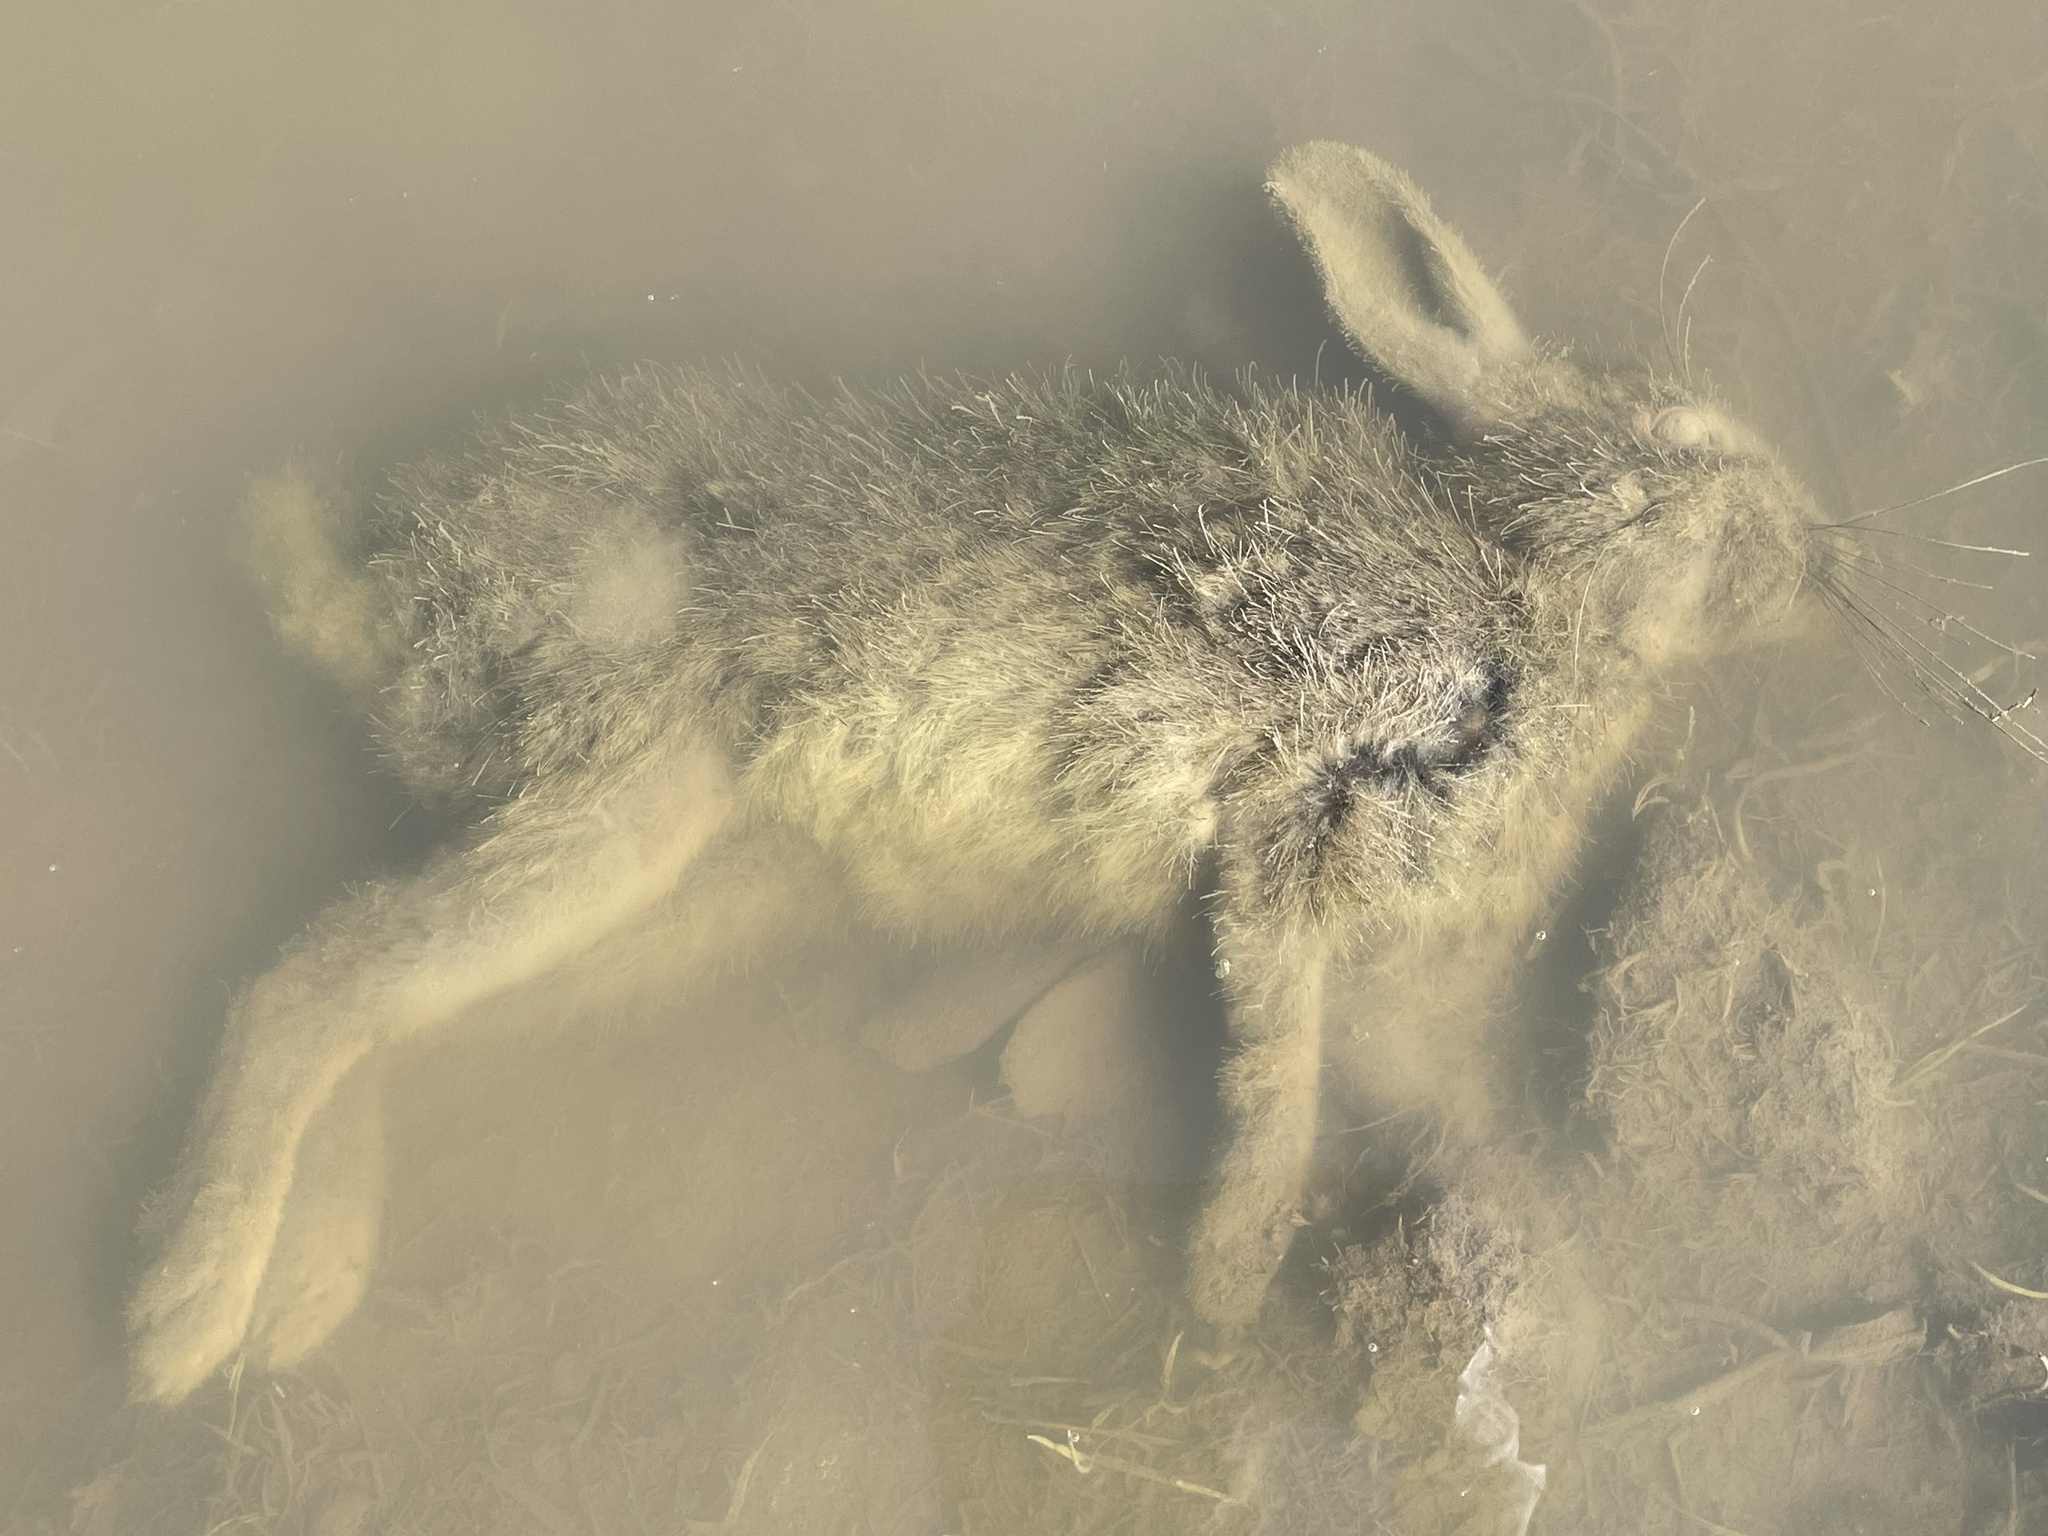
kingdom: Animalia
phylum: Chordata
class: Mammalia
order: Lagomorpha
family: Leporidae
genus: Lepus
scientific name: Lepus californicus
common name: Black-tailed jackrabbit
